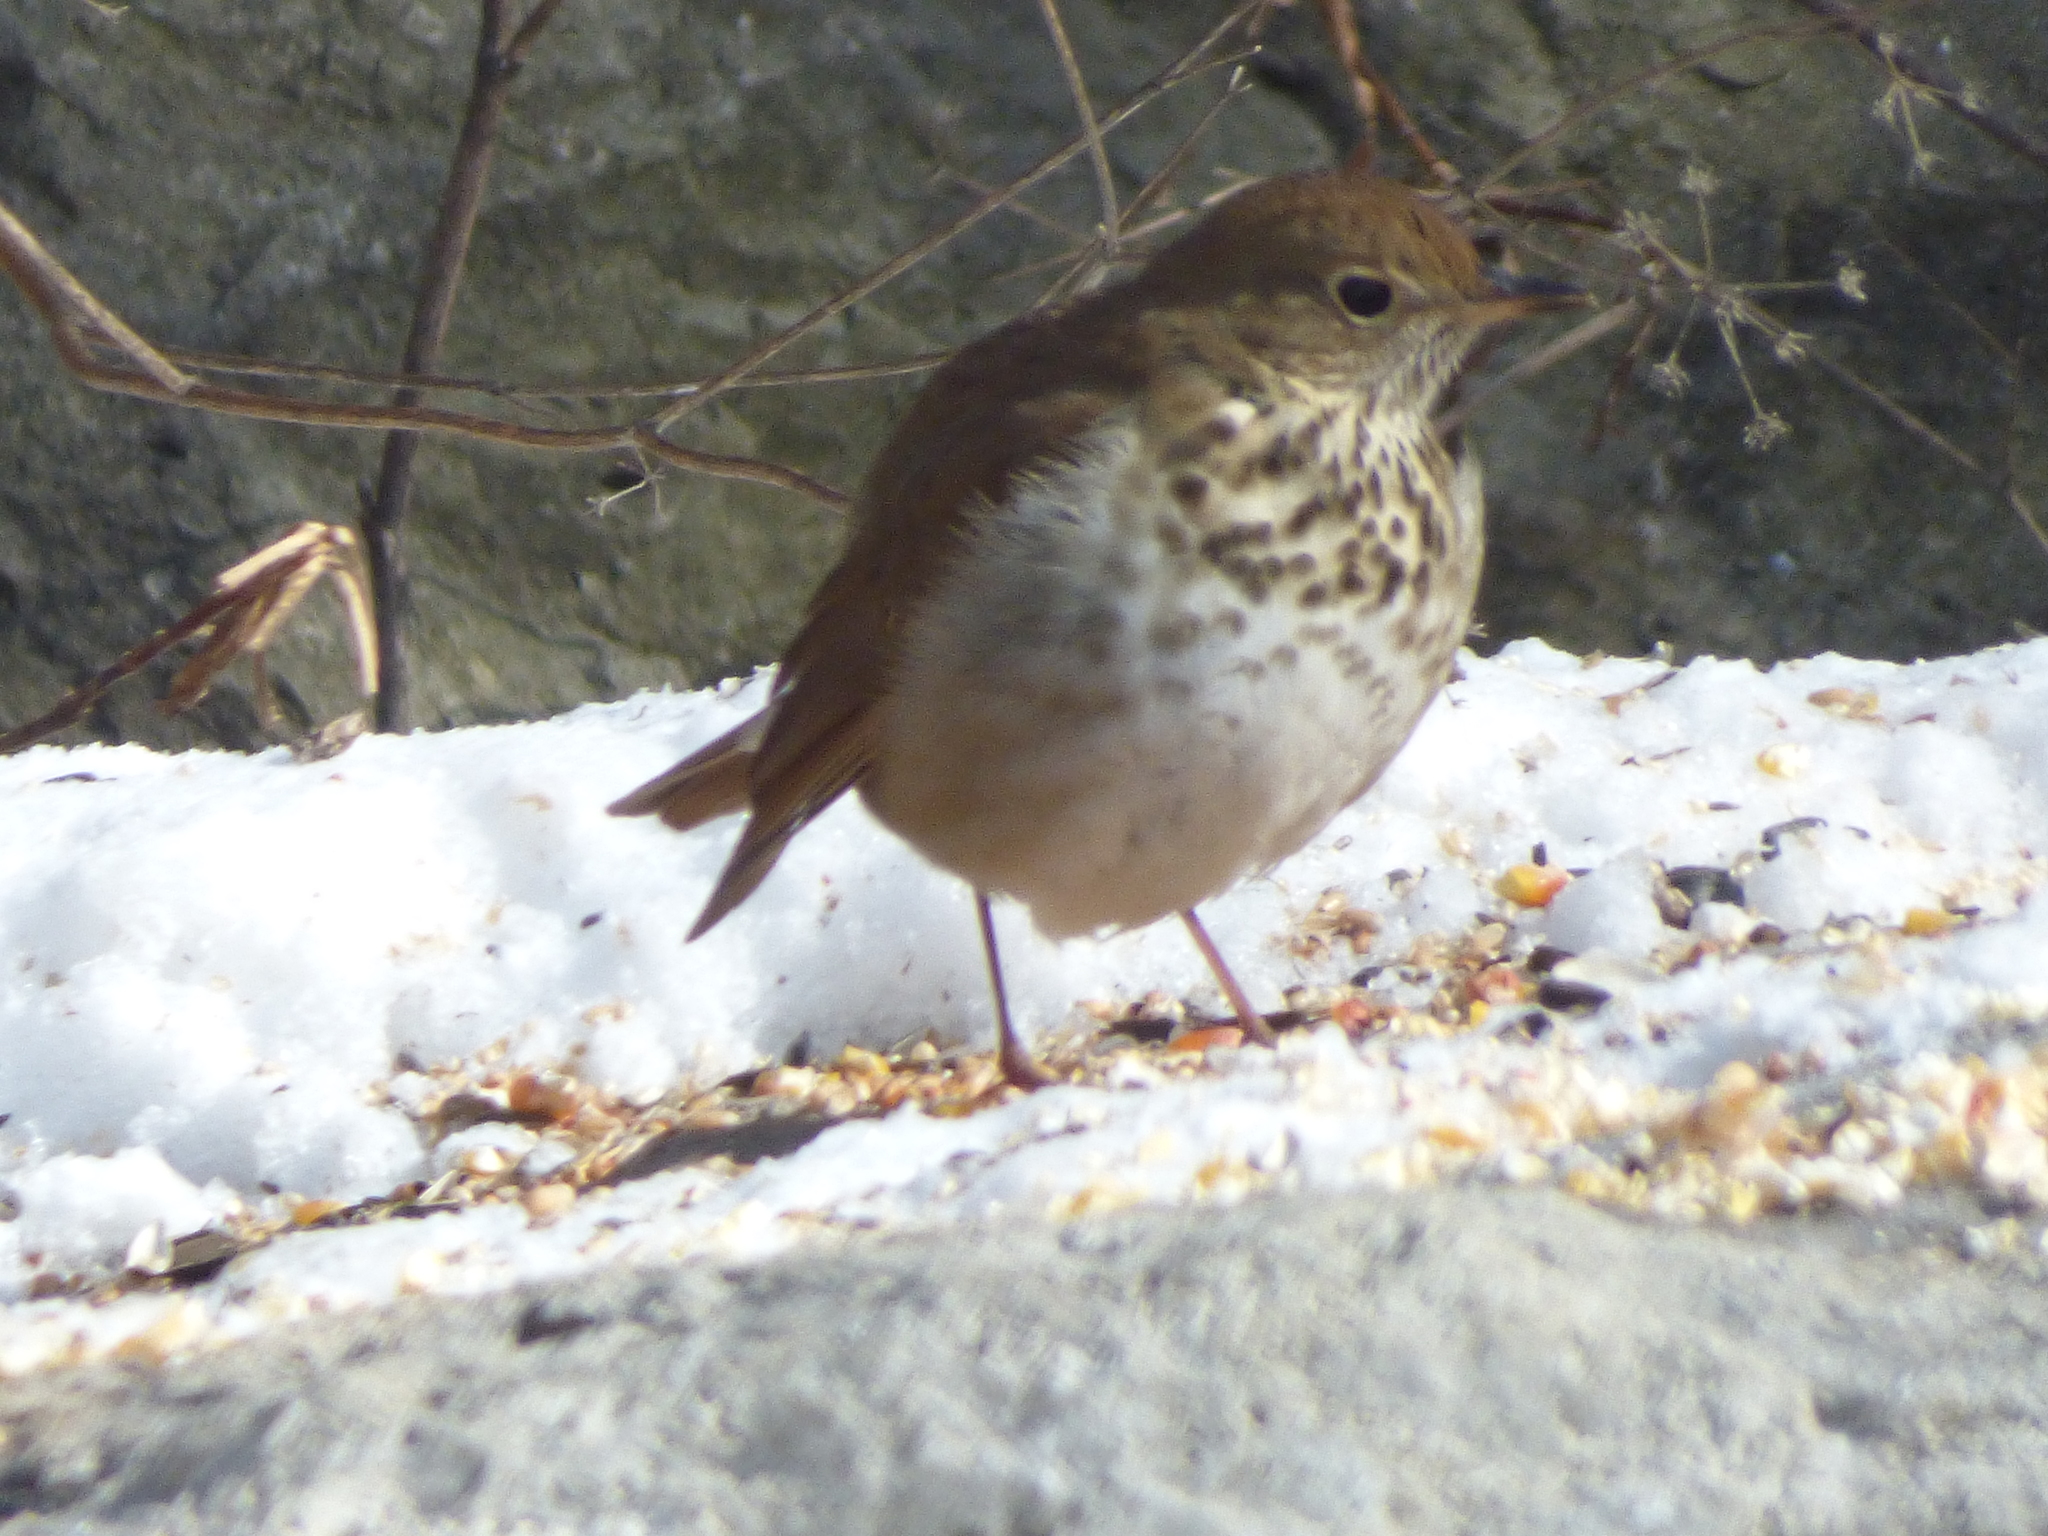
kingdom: Animalia
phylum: Chordata
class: Aves
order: Passeriformes
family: Turdidae
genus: Catharus
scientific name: Catharus guttatus
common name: Hermit thrush
